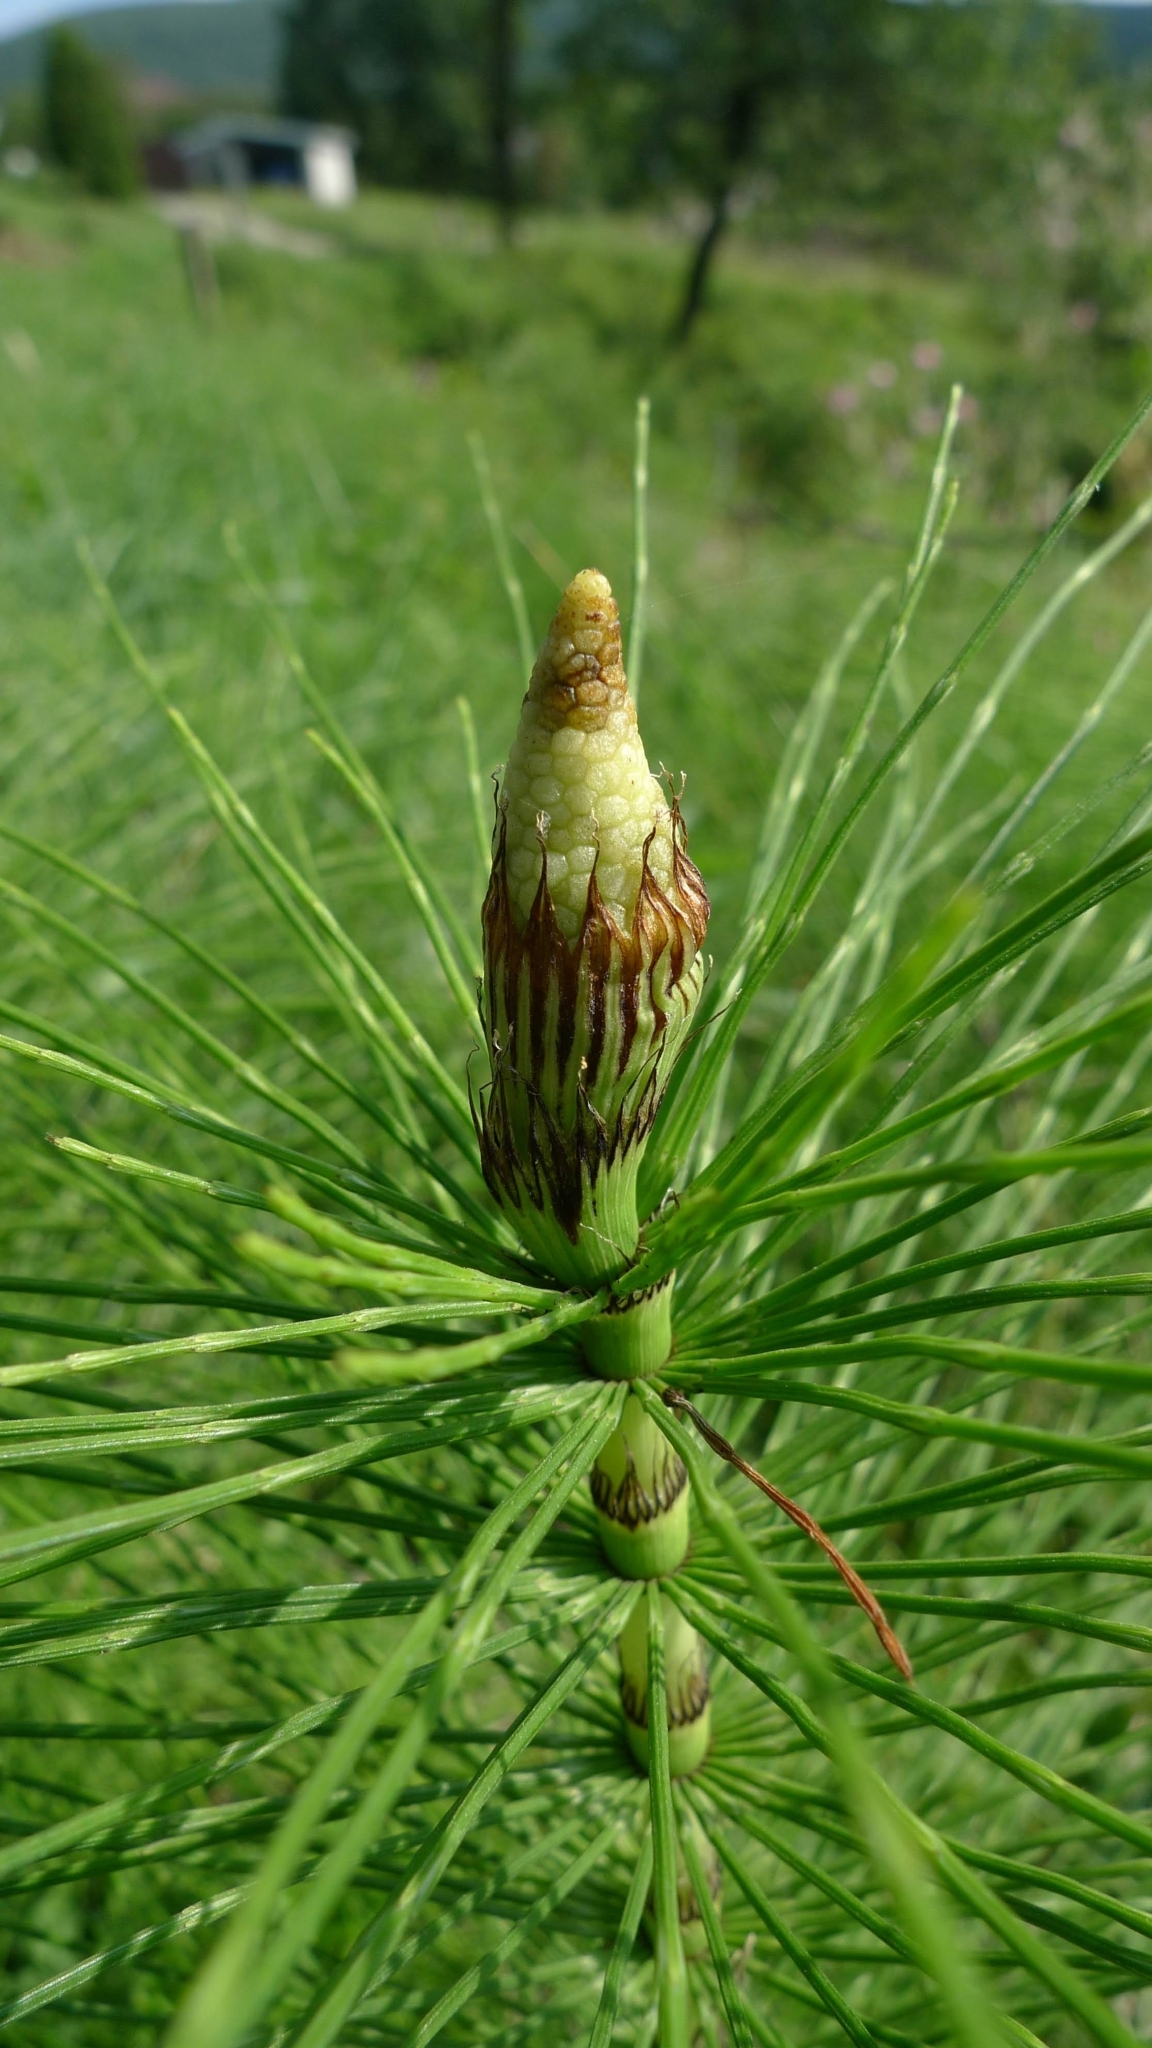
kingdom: Plantae
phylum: Tracheophyta
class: Polypodiopsida
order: Equisetales
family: Equisetaceae
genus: Equisetum
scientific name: Equisetum telmateia
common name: Great horsetail
